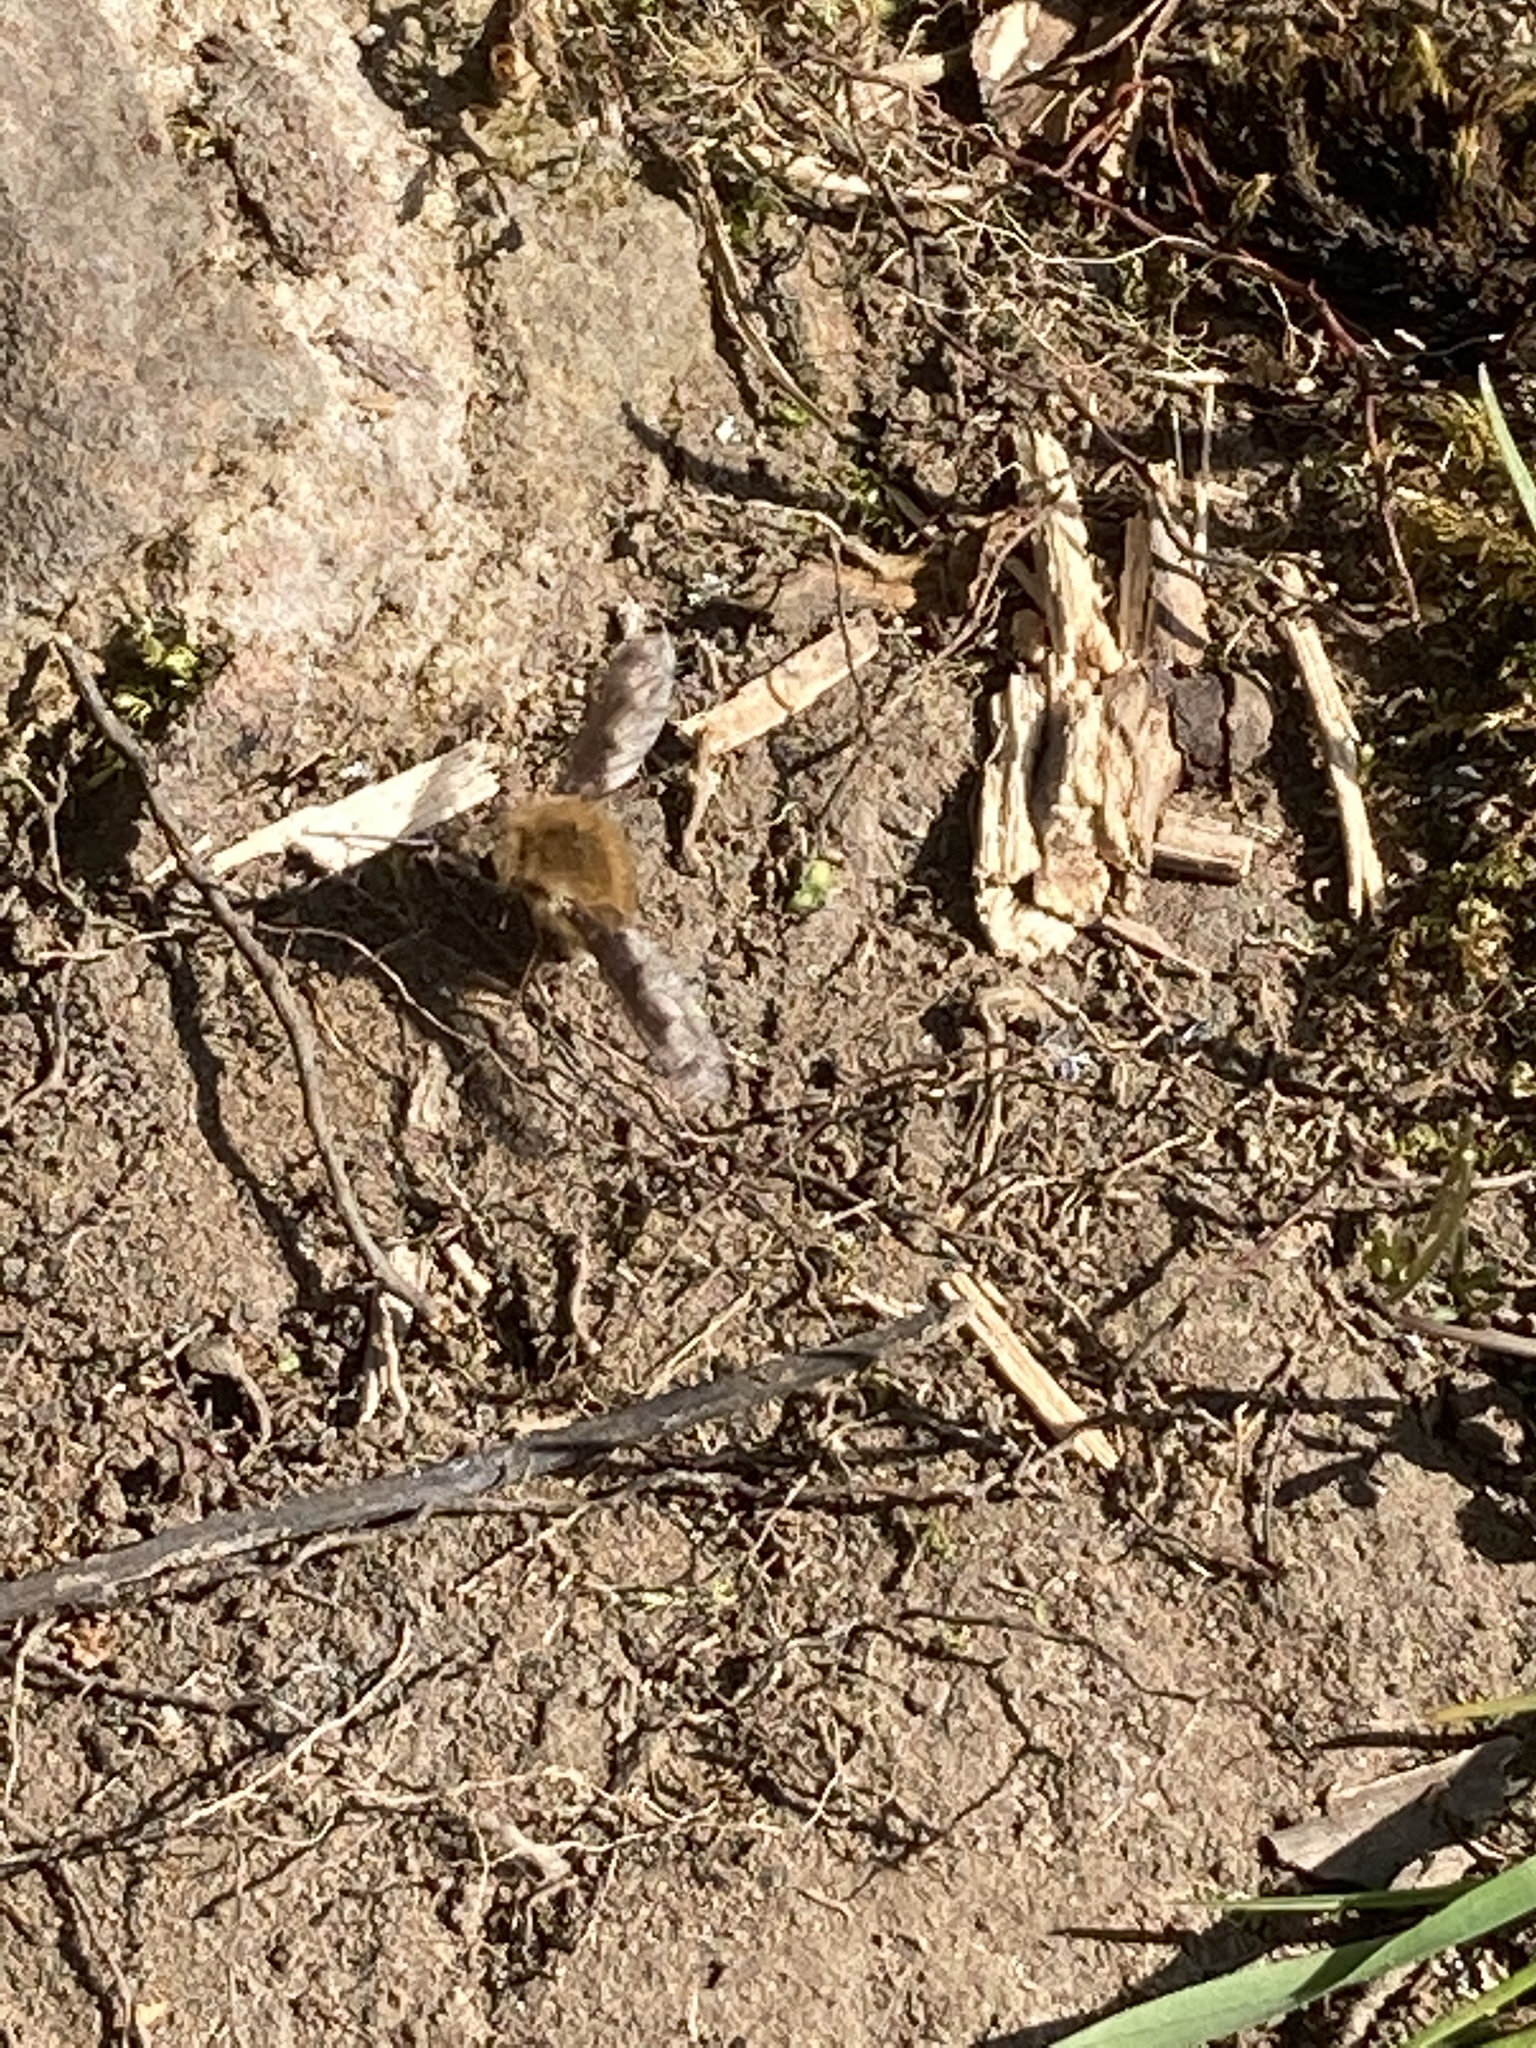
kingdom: Animalia
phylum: Arthropoda
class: Insecta
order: Diptera
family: Bombyliidae
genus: Bombylius
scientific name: Bombylius major
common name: Bee fly
